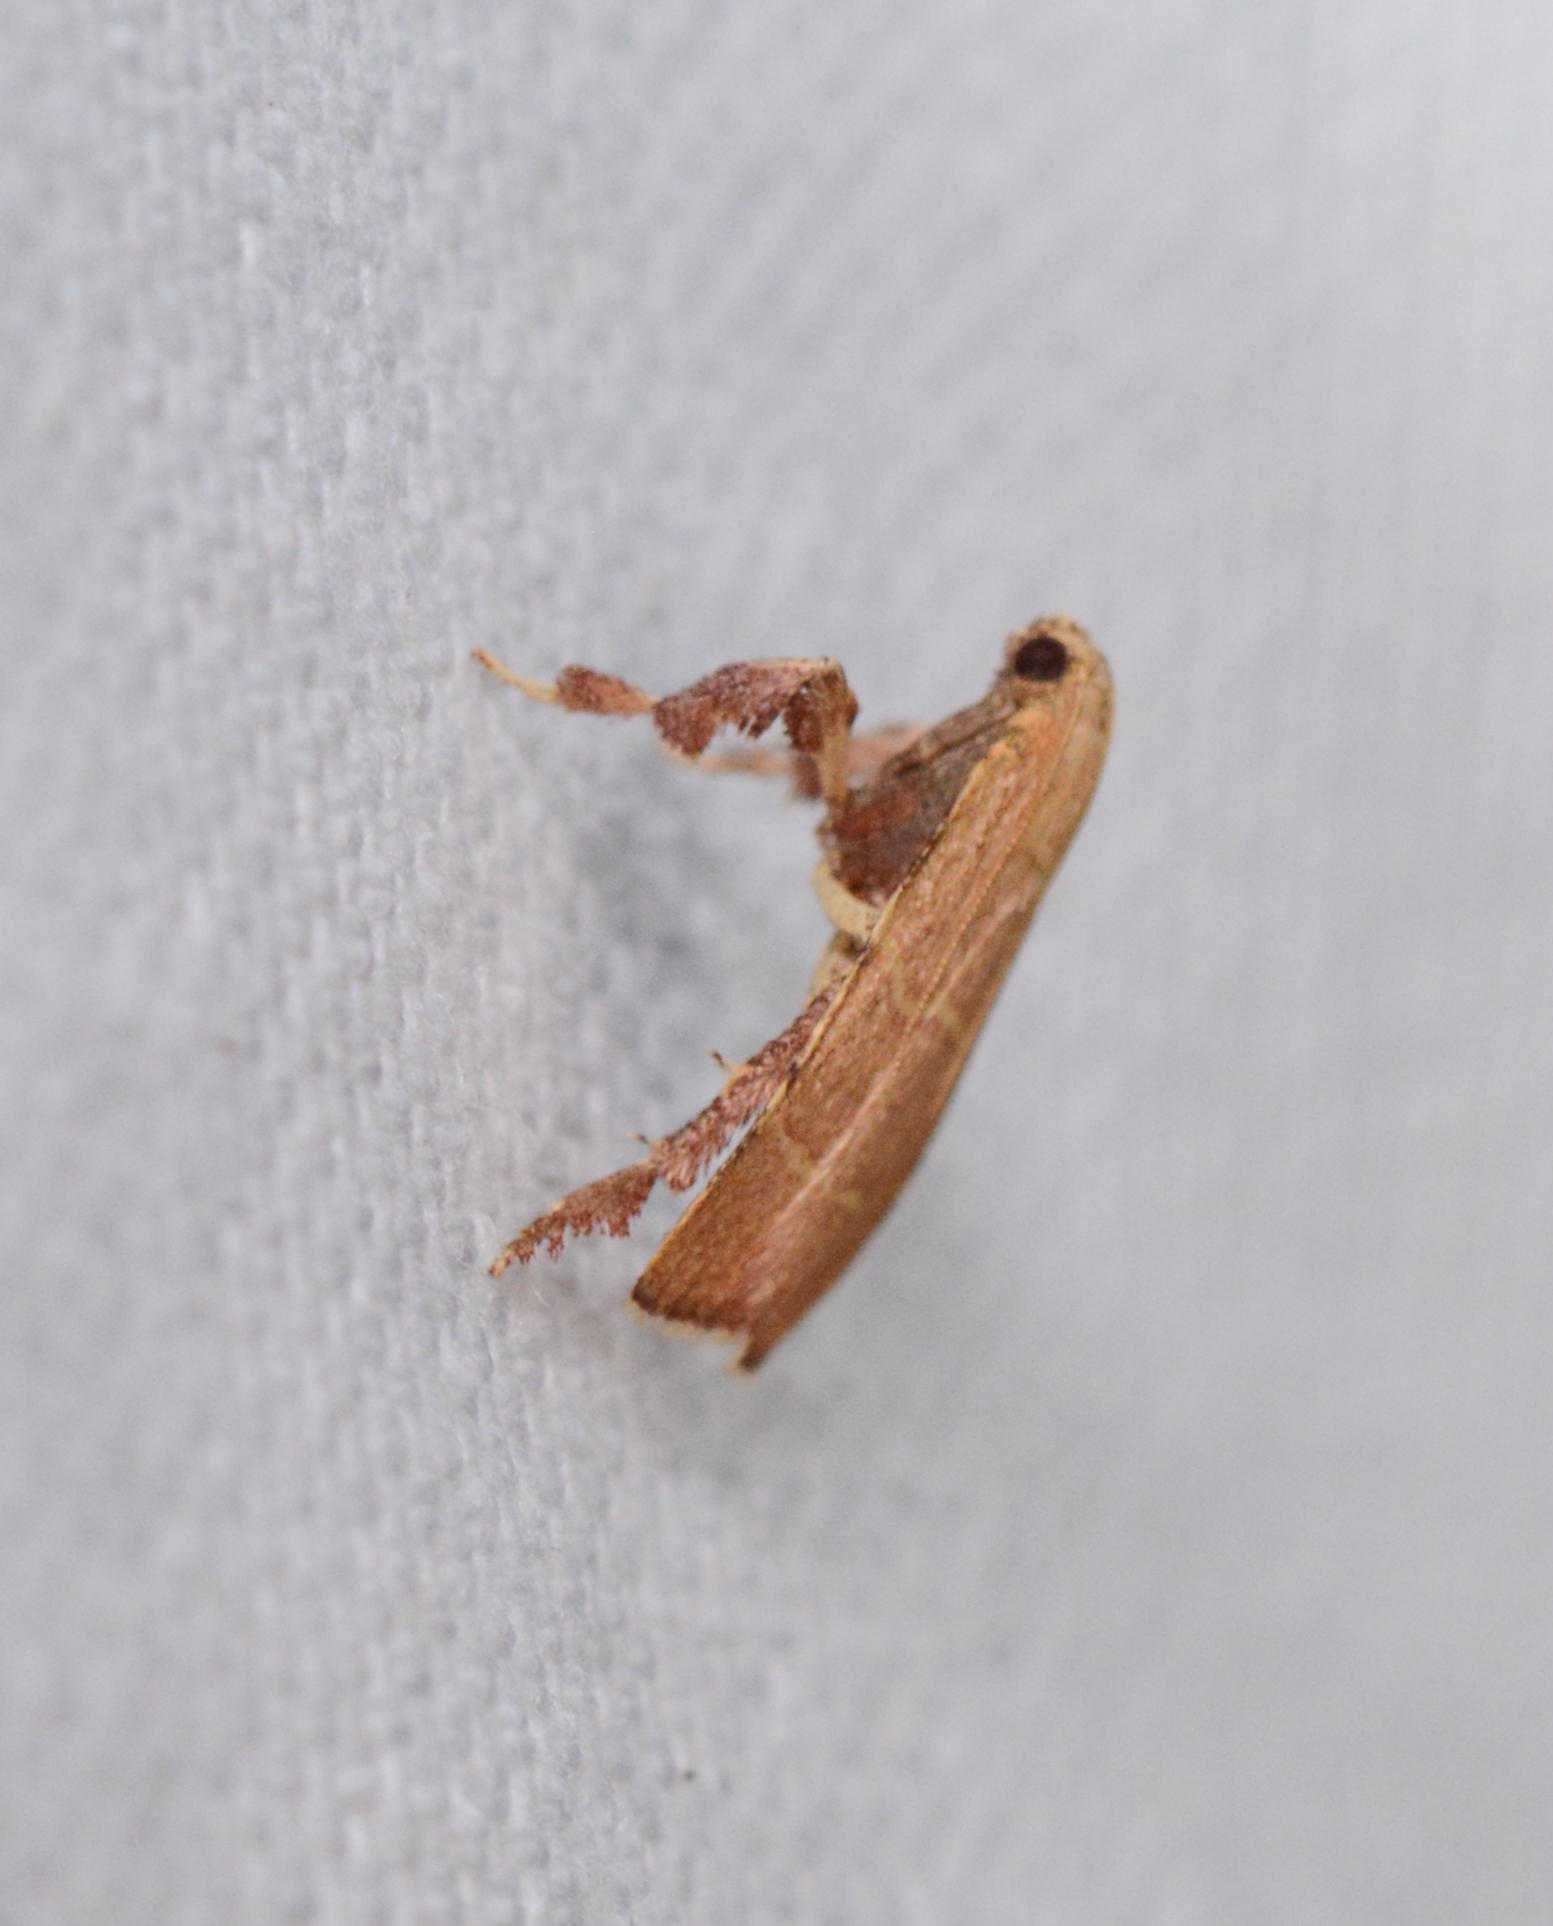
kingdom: Animalia
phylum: Arthropoda
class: Insecta
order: Lepidoptera
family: Pyralidae
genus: Parachma
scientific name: Parachma ochracealis
